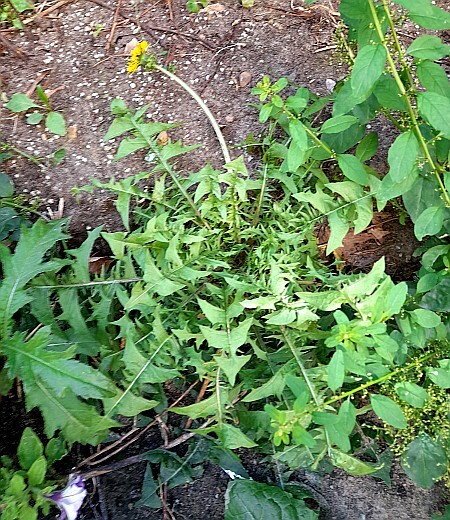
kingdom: Plantae
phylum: Tracheophyta
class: Magnoliopsida
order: Asterales
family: Asteraceae
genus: Taraxacum
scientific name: Taraxacum officinale
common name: Common dandelion
